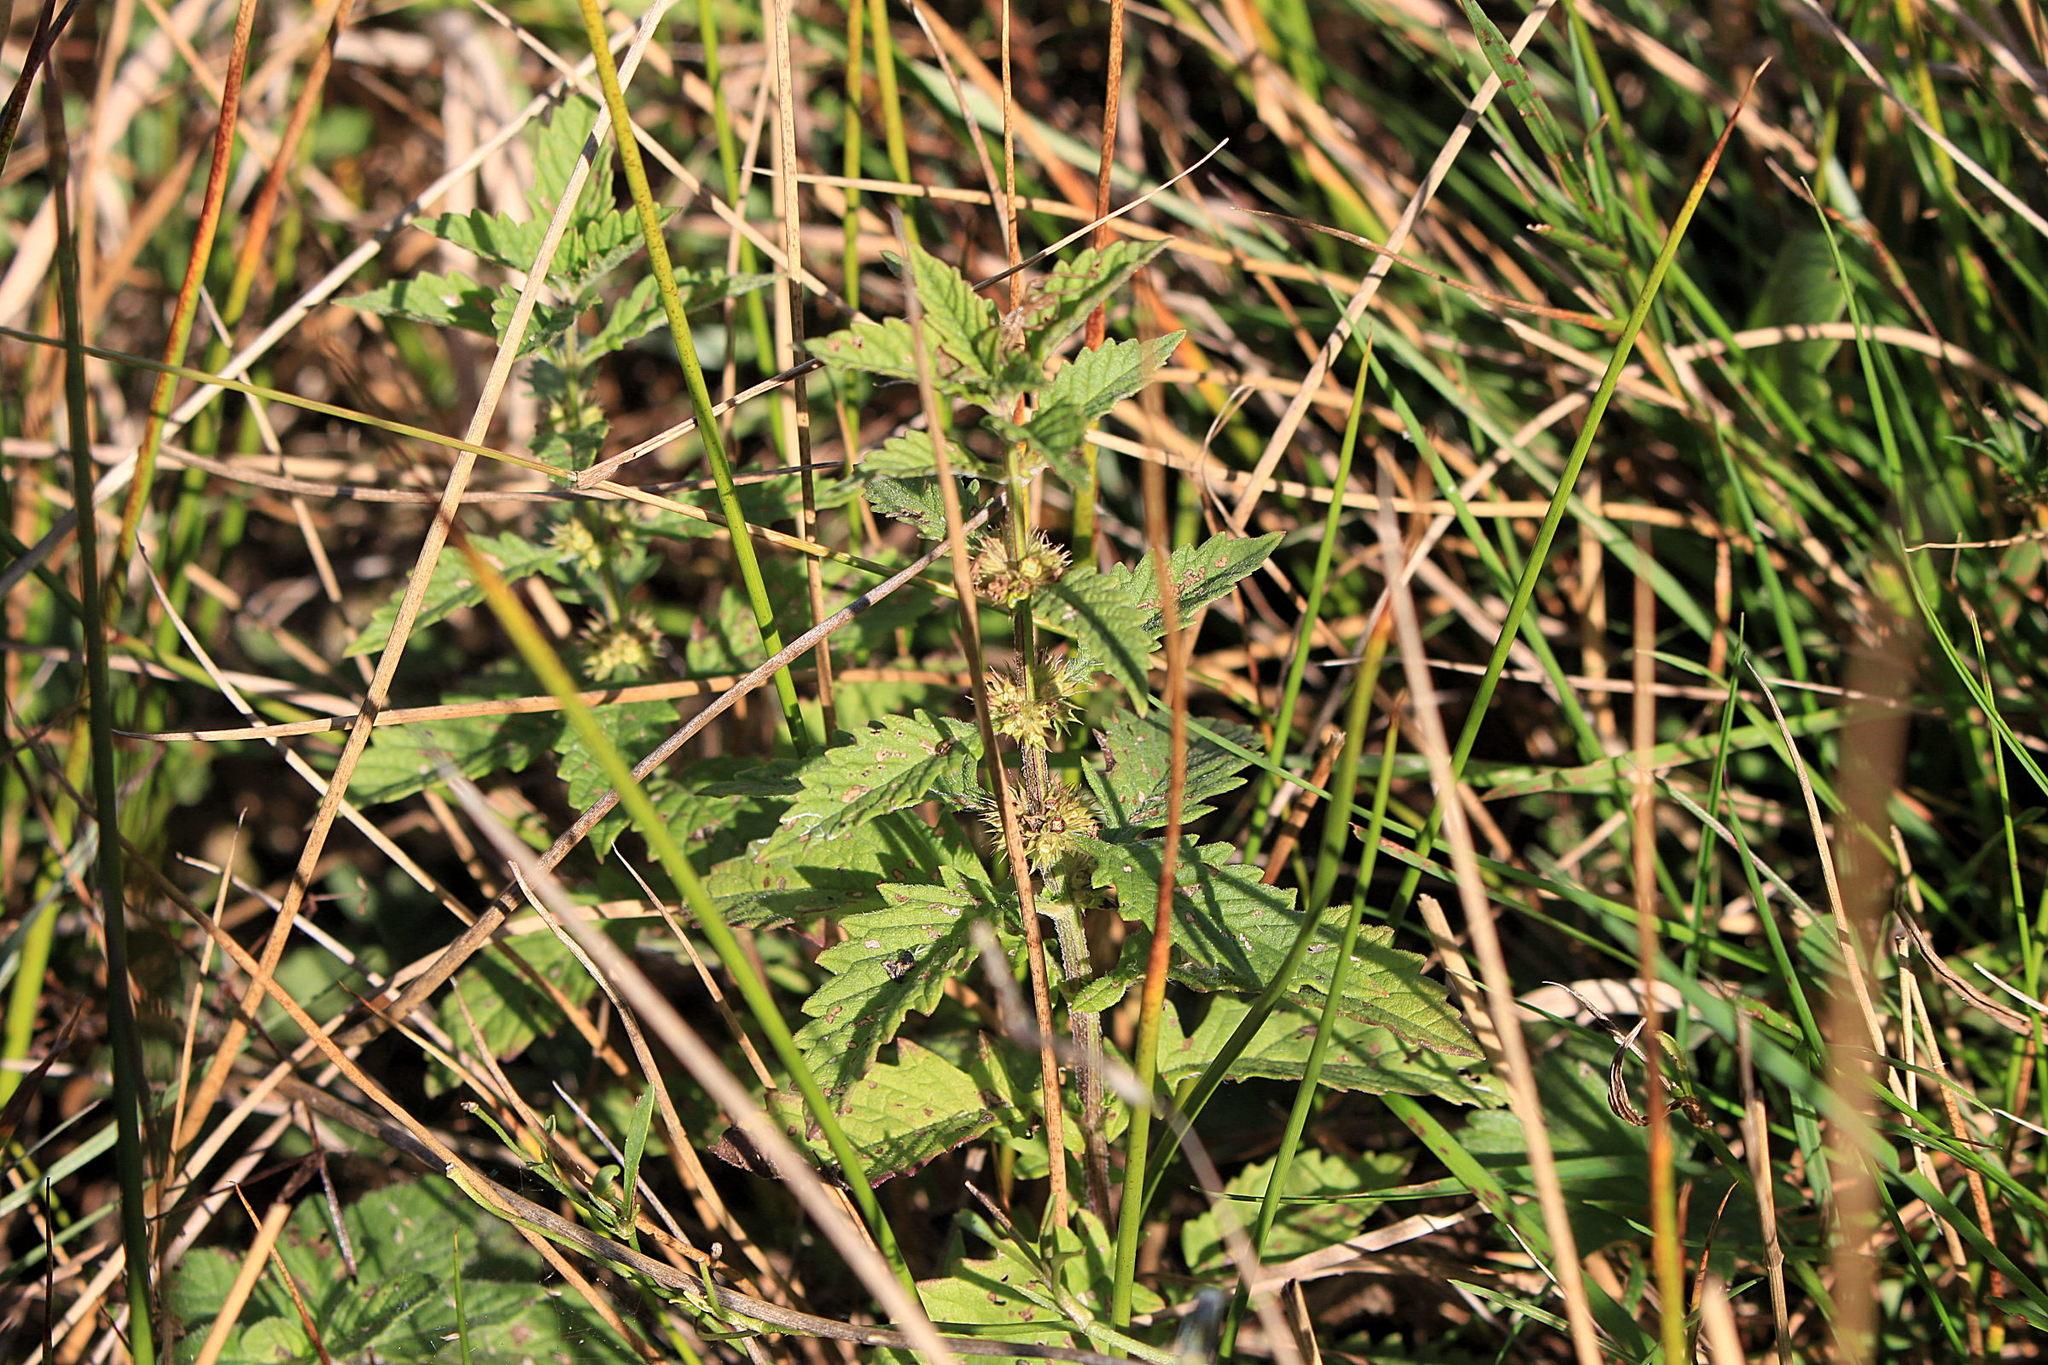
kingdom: Plantae
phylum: Tracheophyta
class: Magnoliopsida
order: Lamiales
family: Lamiaceae
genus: Lycopus
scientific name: Lycopus europaeus
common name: European bugleweed
